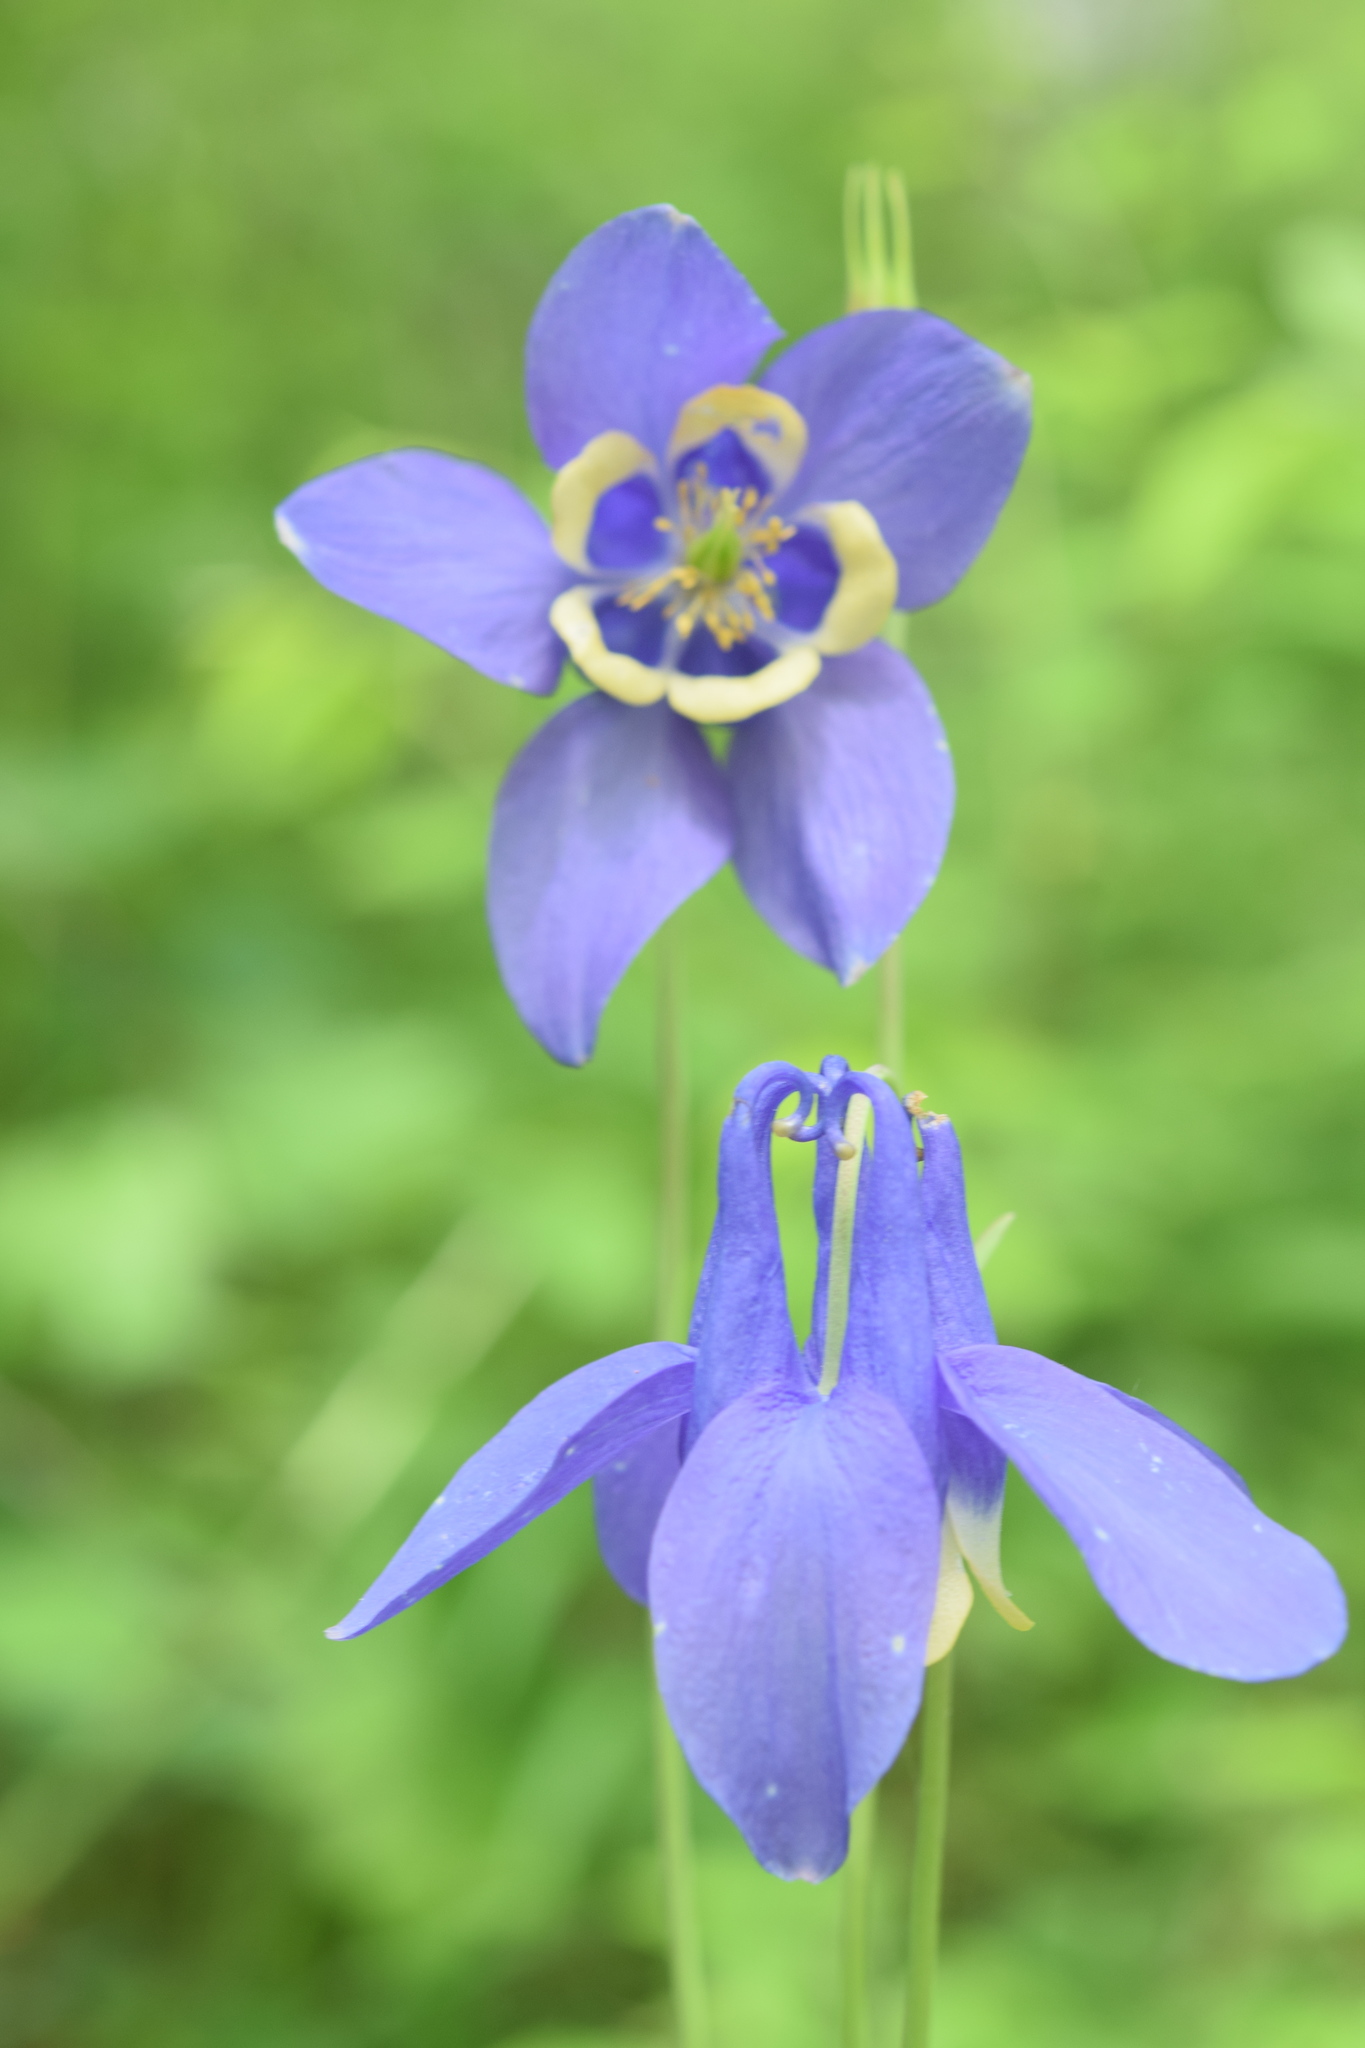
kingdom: Plantae
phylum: Tracheophyta
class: Magnoliopsida
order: Ranunculales
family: Ranunculaceae
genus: Aquilegia
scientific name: Aquilegia sibirica
